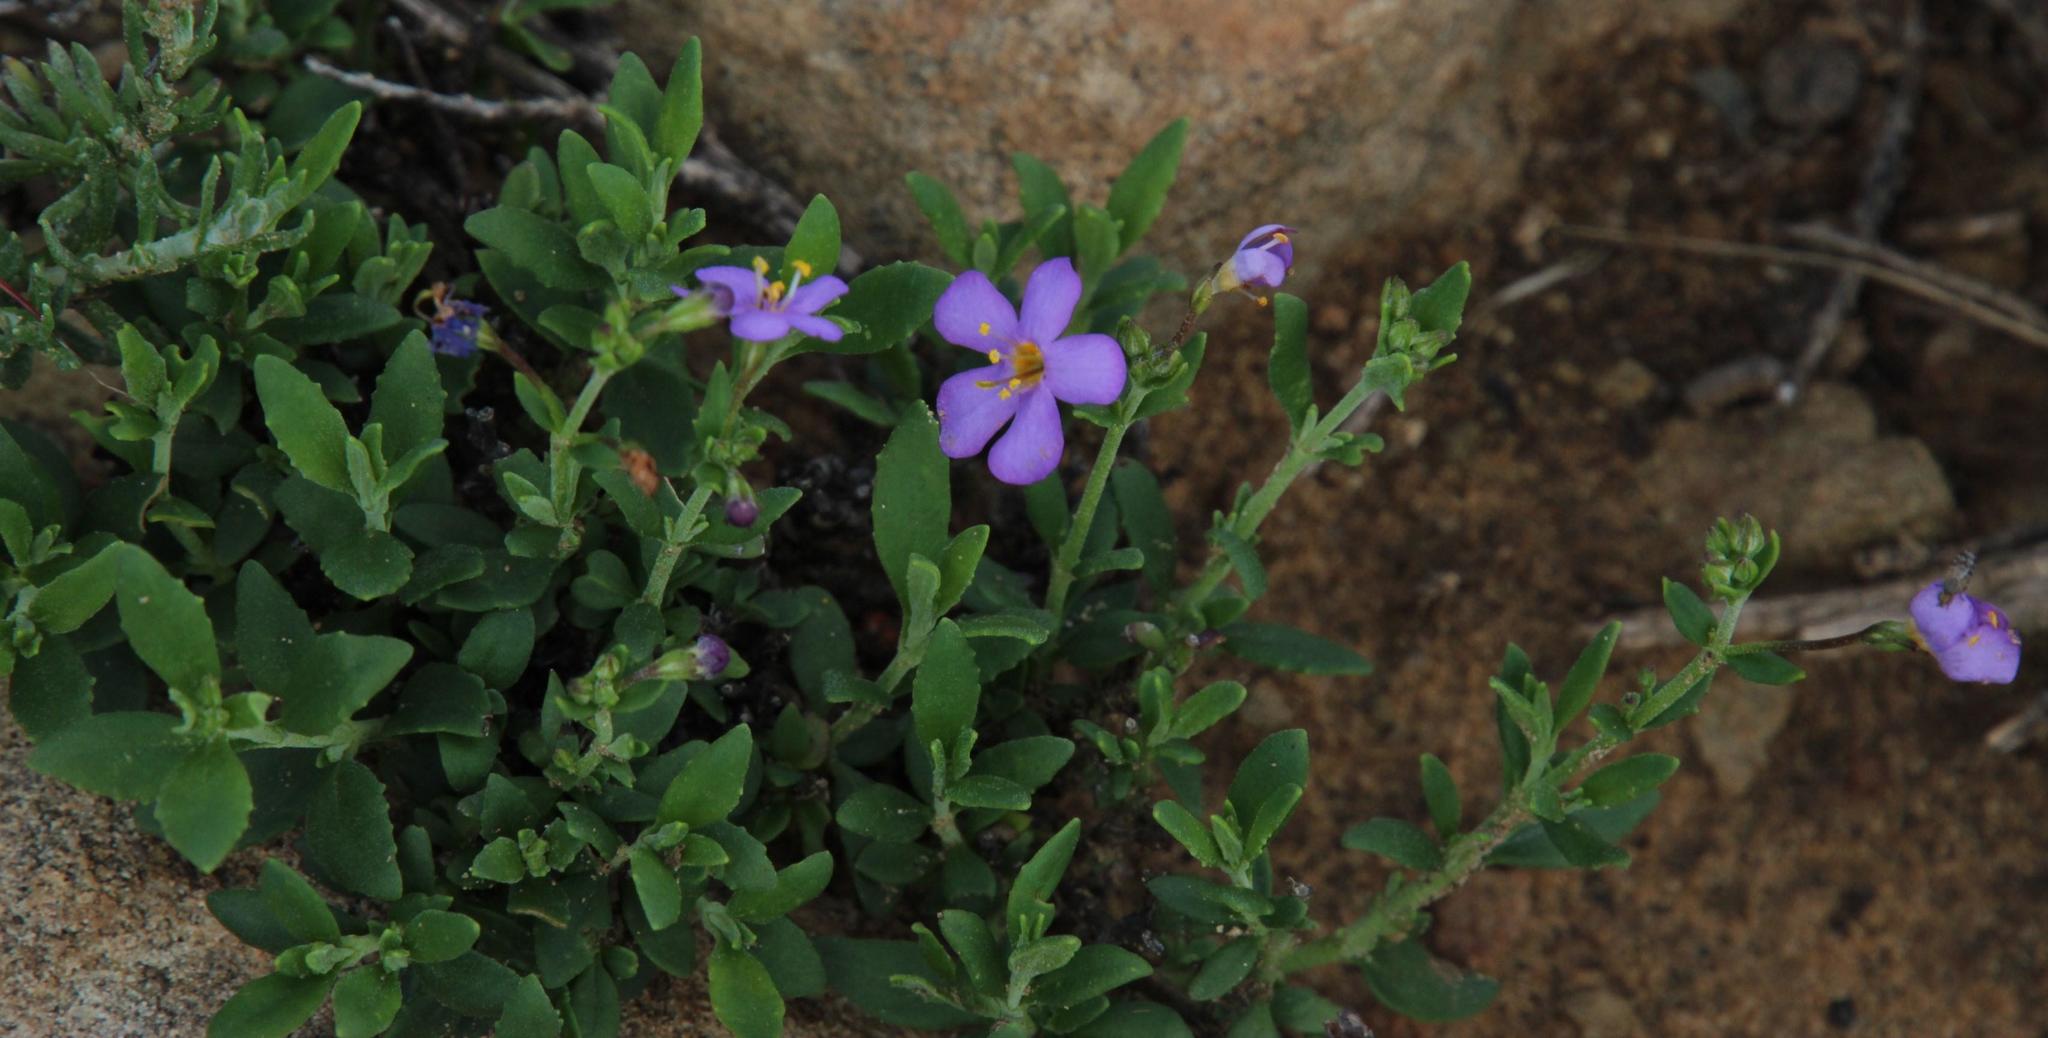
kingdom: Plantae
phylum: Tracheophyta
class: Magnoliopsida
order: Lamiales
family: Scrophulariaceae
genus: Chaenostoma
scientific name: Chaenostoma halimifolium
